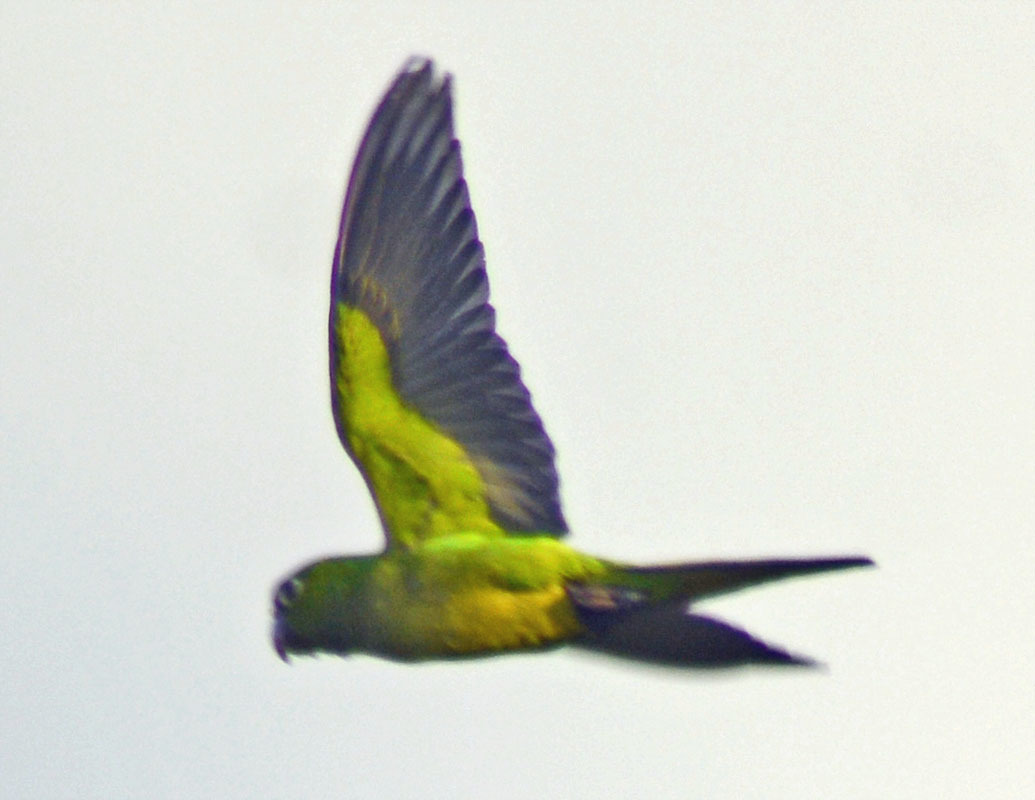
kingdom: Animalia
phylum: Chordata
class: Aves
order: Psittaciformes
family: Psittacidae
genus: Aratinga
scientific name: Aratinga nana
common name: Olive-throated parakeet
